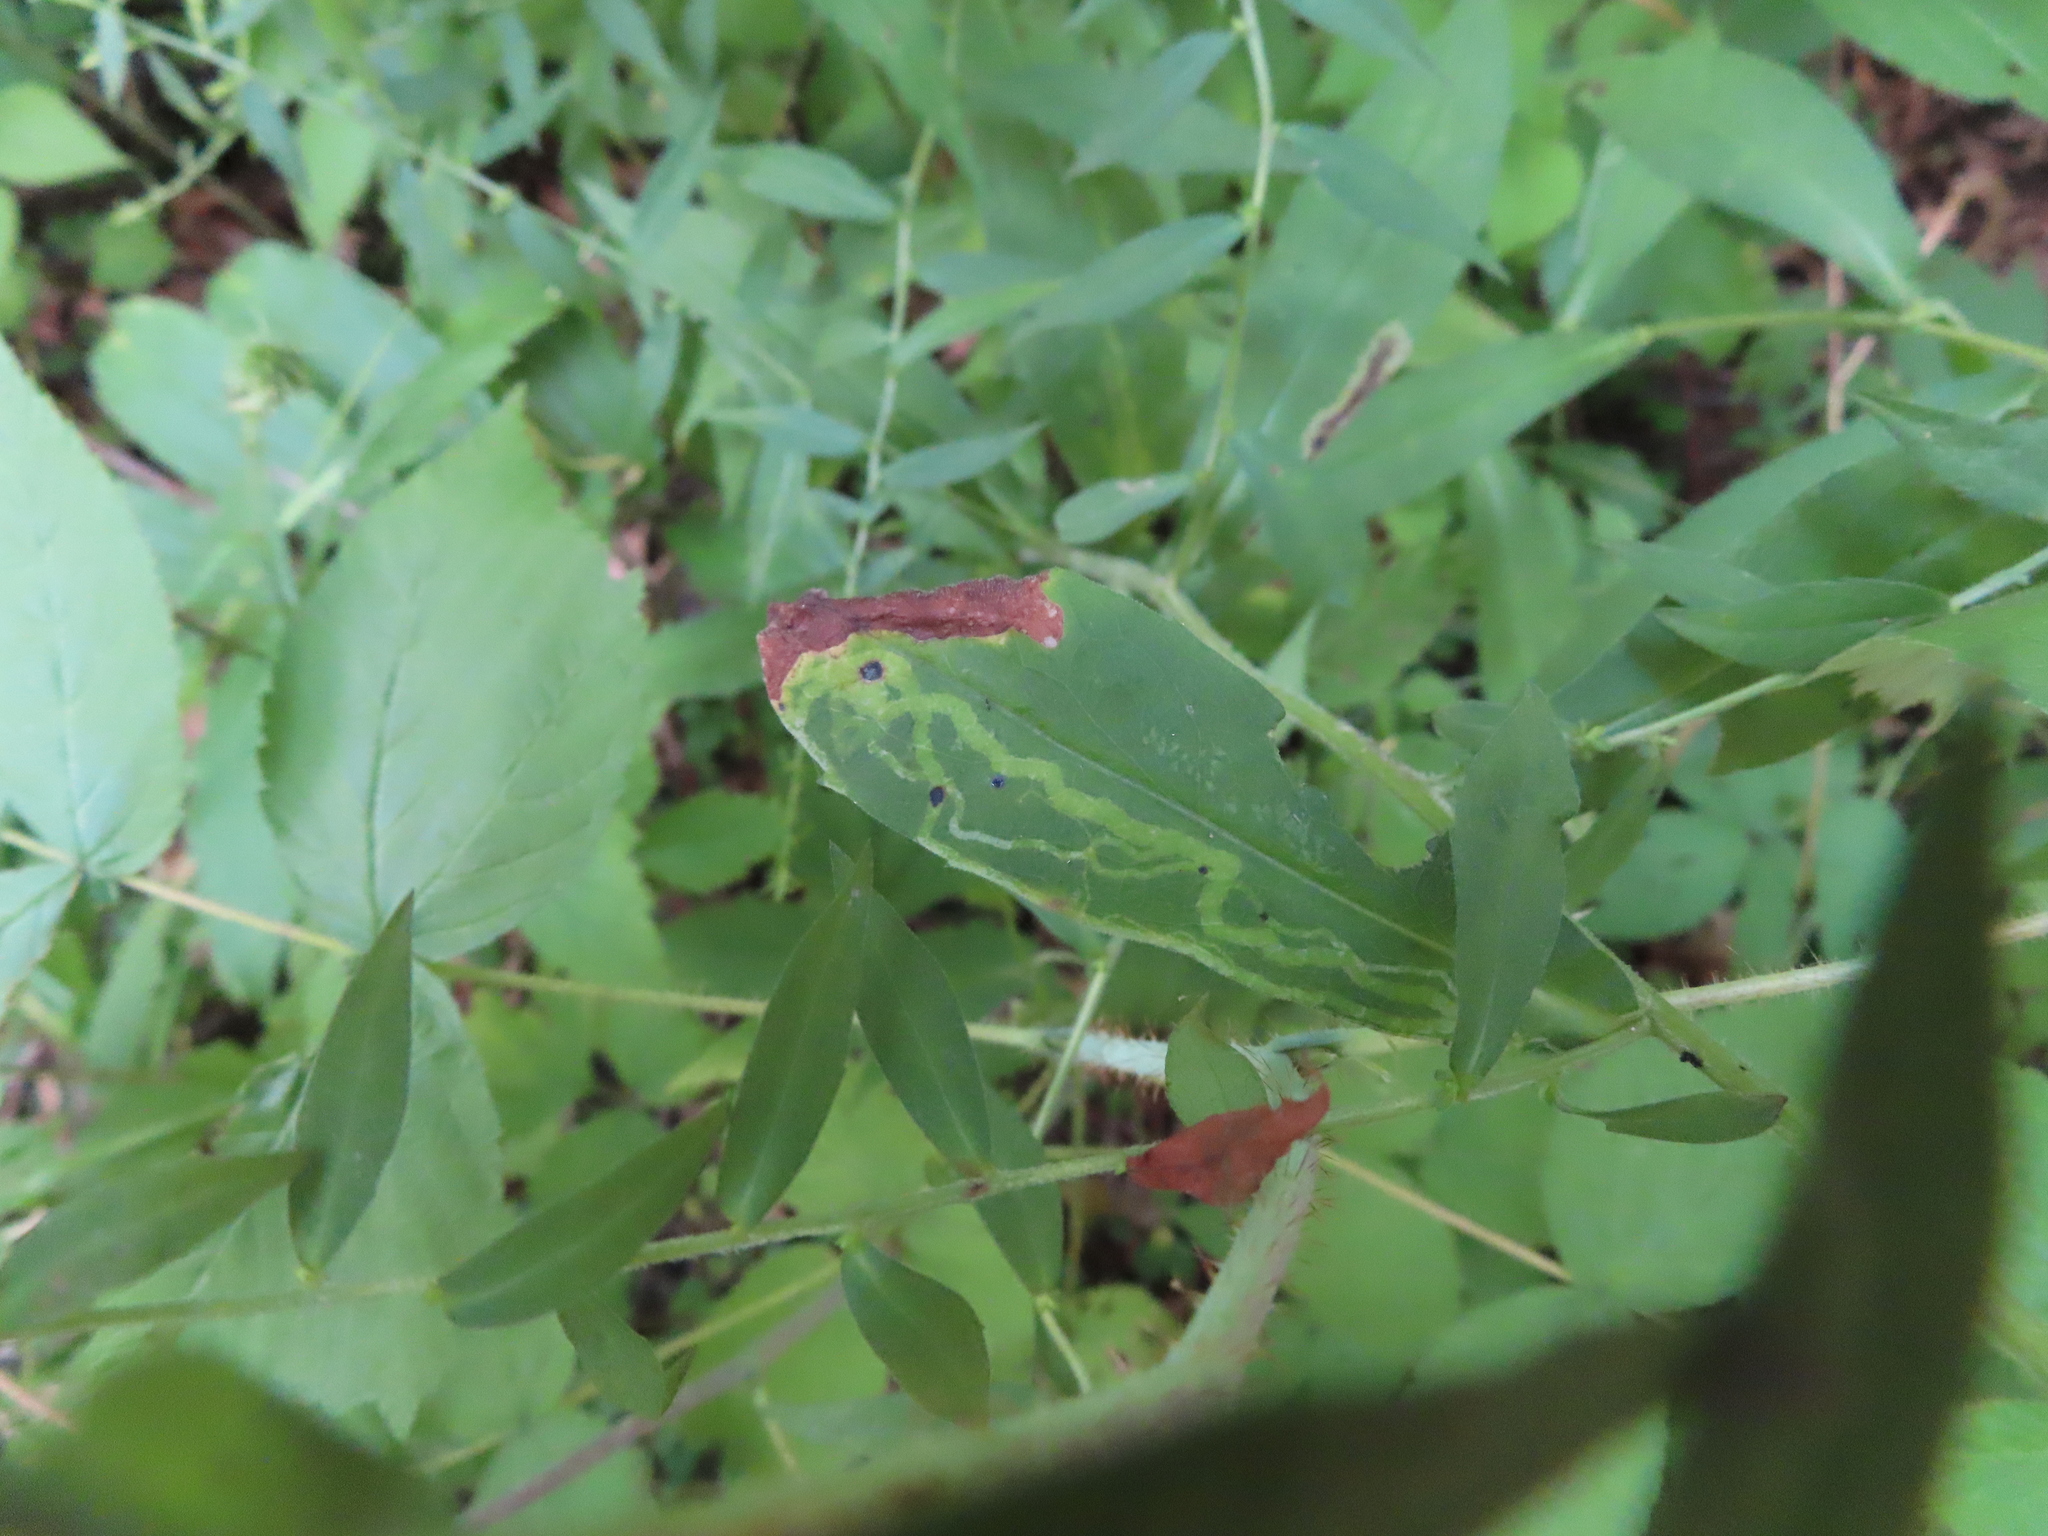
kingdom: Animalia
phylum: Arthropoda
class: Insecta
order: Diptera
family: Agromyzidae
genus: Ophiomyia
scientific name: Ophiomyia parda
